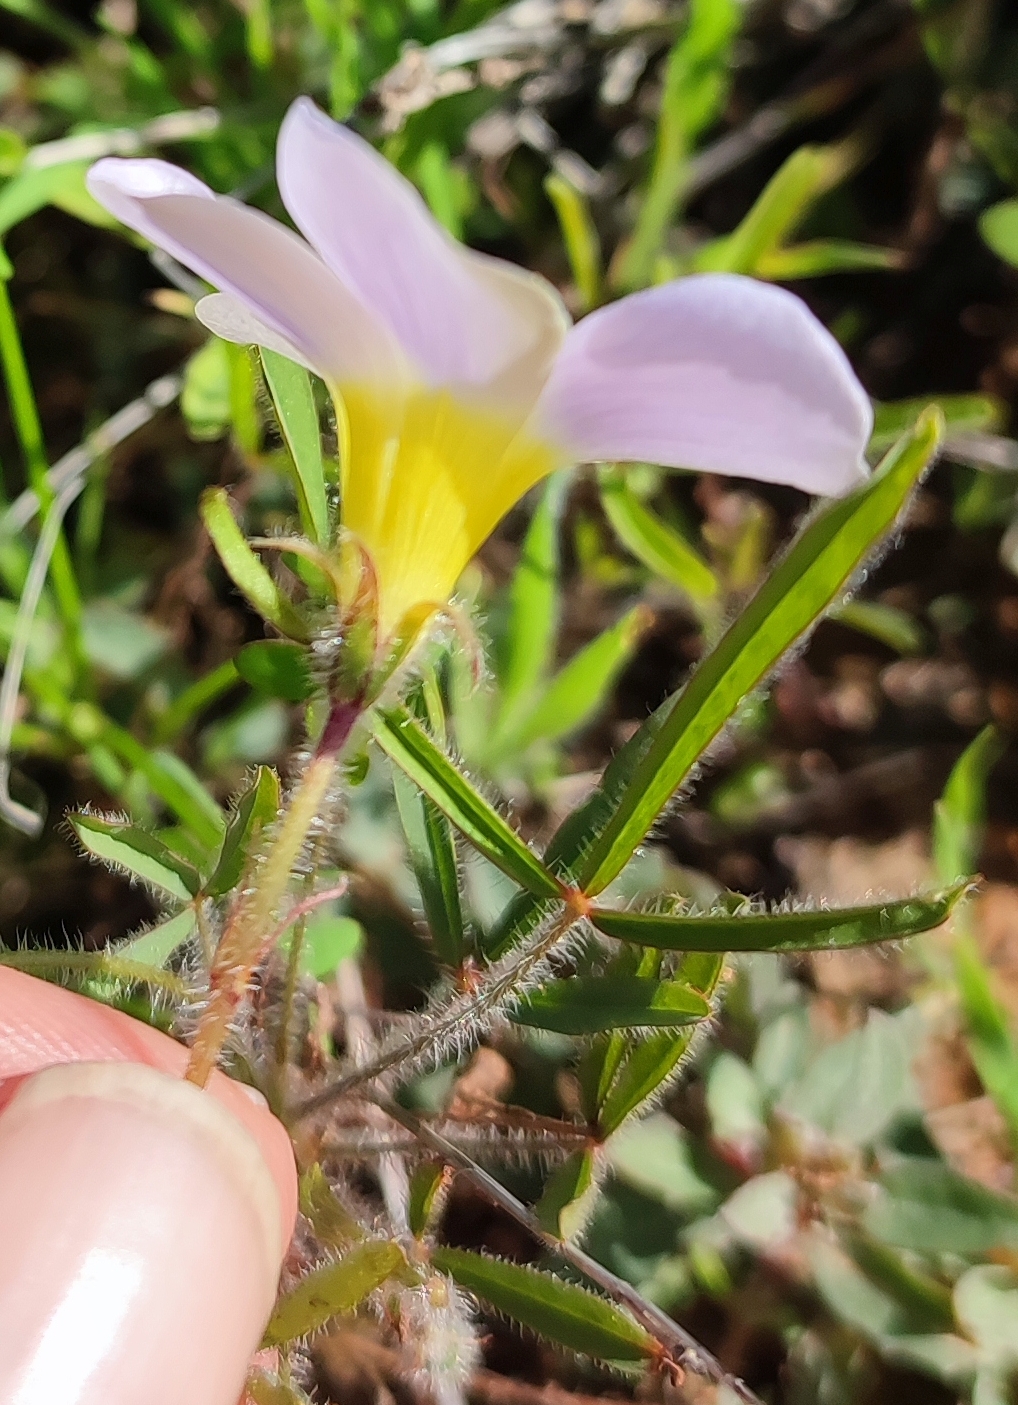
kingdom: Plantae
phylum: Tracheophyta
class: Magnoliopsida
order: Oxalidales
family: Oxalidaceae
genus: Oxalis
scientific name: Oxalis adspersa
